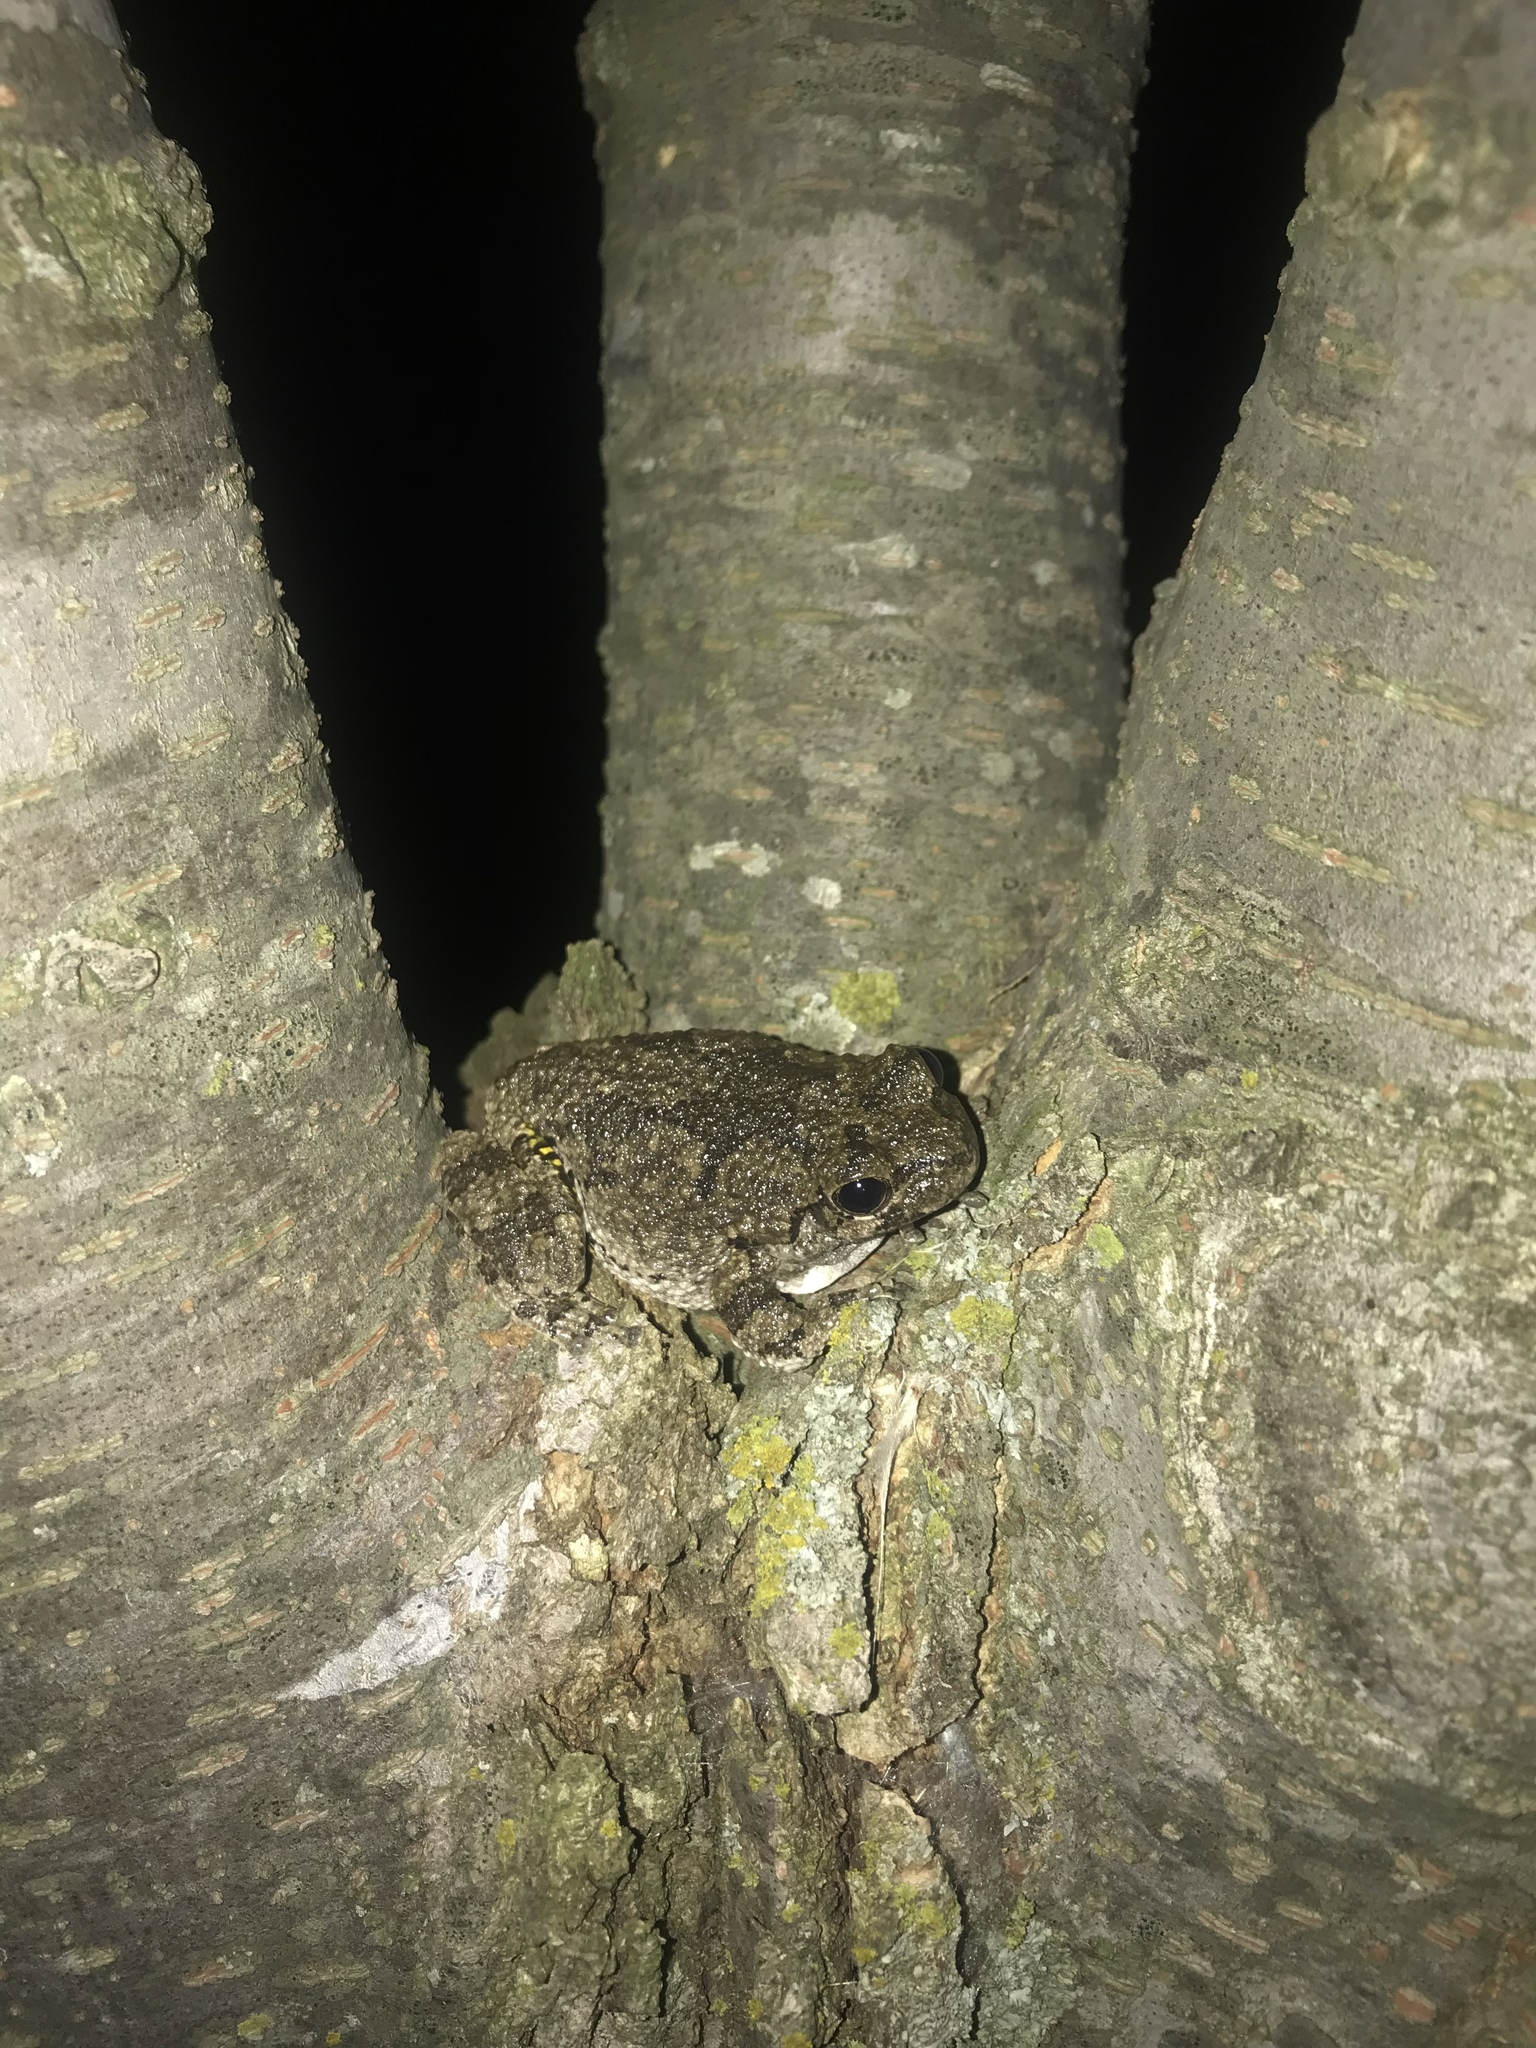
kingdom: Animalia
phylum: Chordata
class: Amphibia
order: Anura
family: Hylidae
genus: Dryophytes
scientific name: Dryophytes versicolor
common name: Gray treefrog
